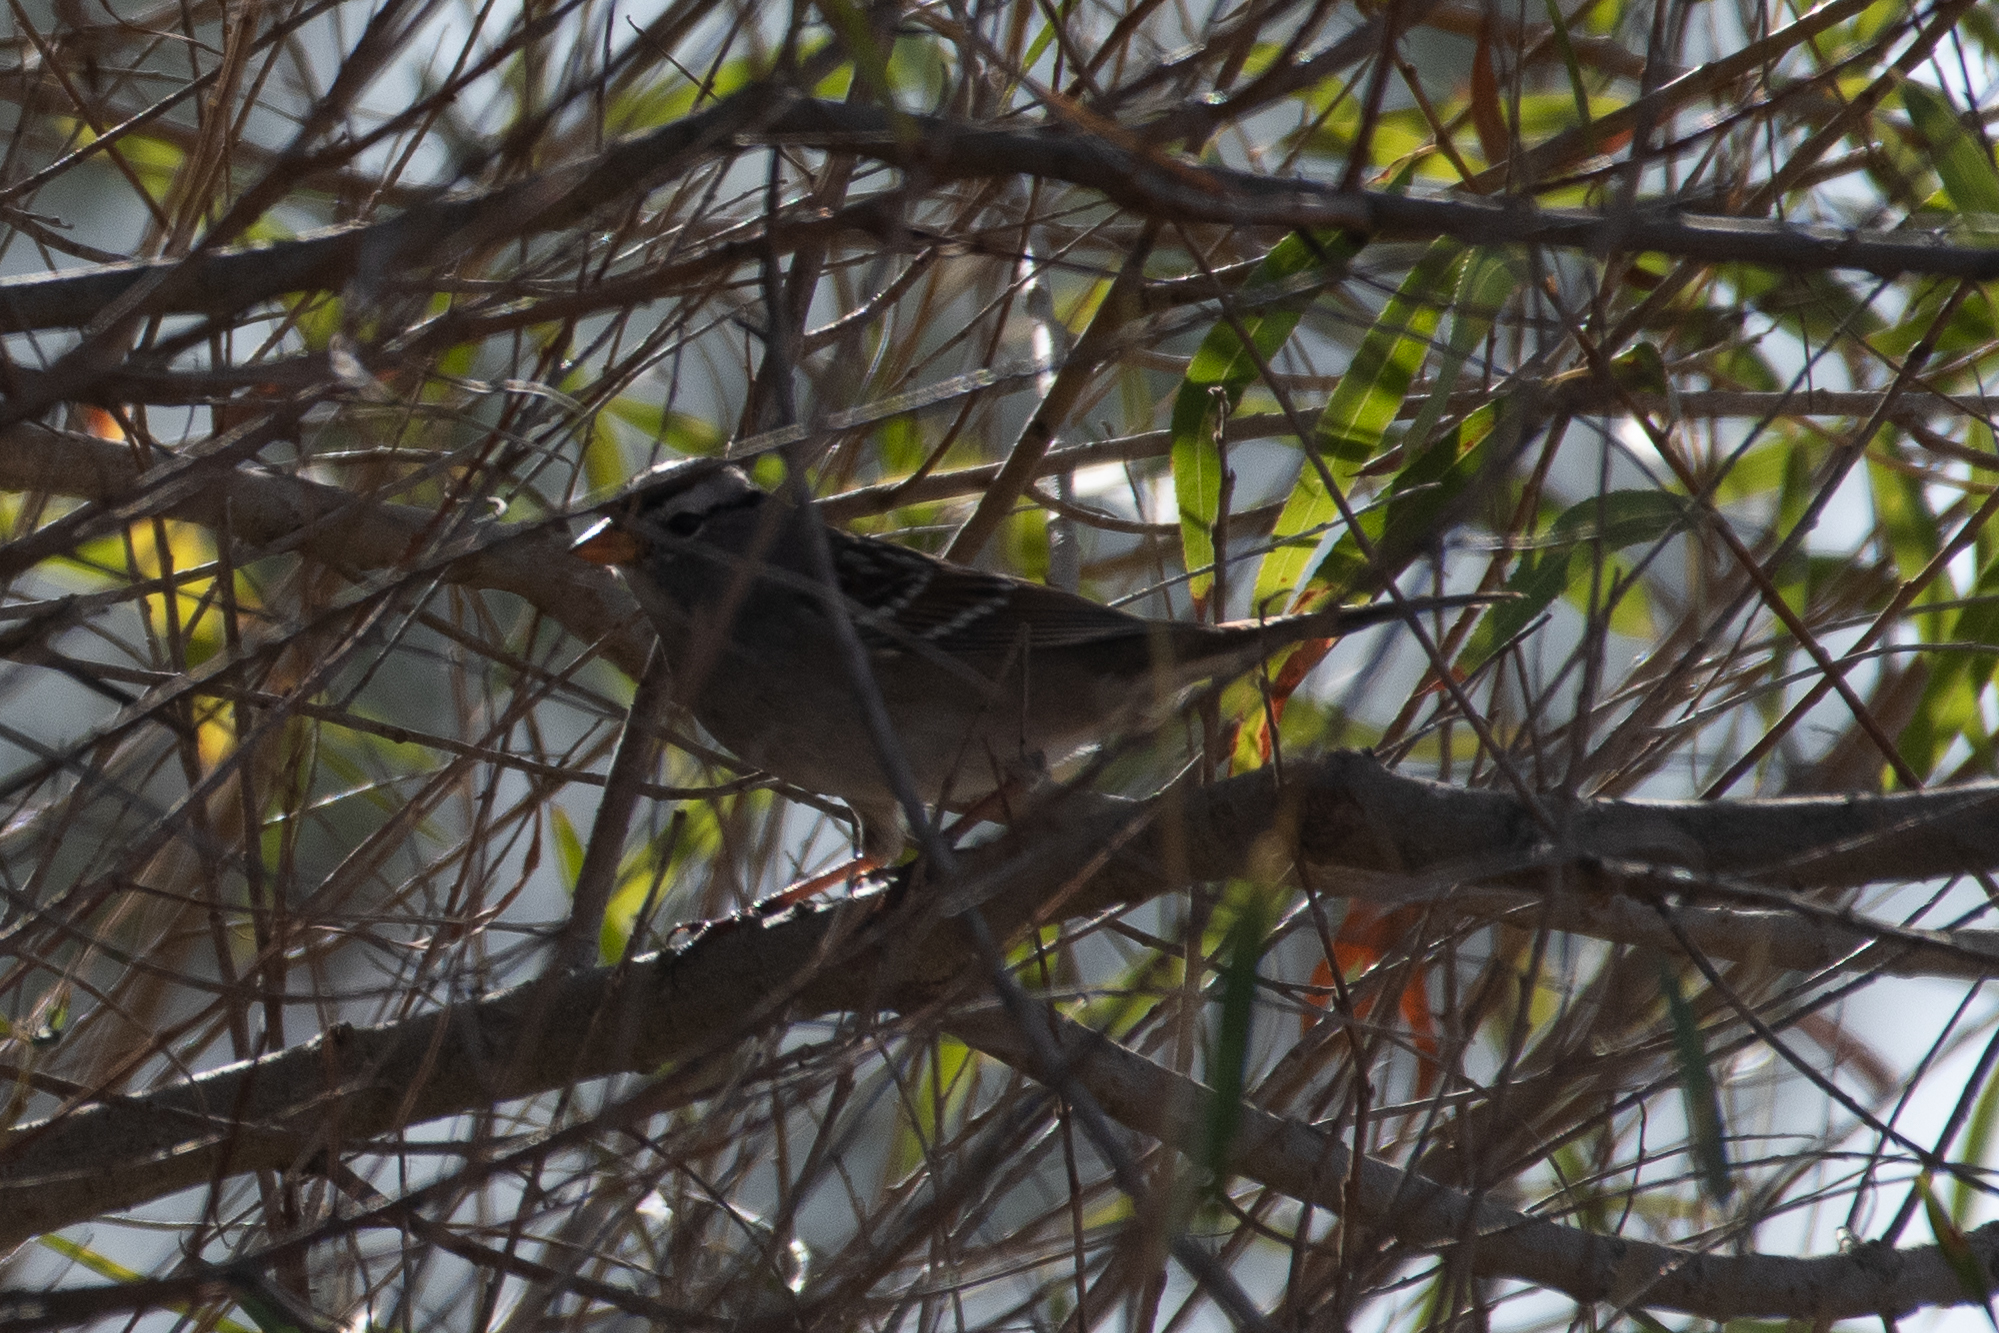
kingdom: Animalia
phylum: Chordata
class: Aves
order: Passeriformes
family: Passerellidae
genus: Zonotrichia
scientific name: Zonotrichia leucophrys
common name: White-crowned sparrow
